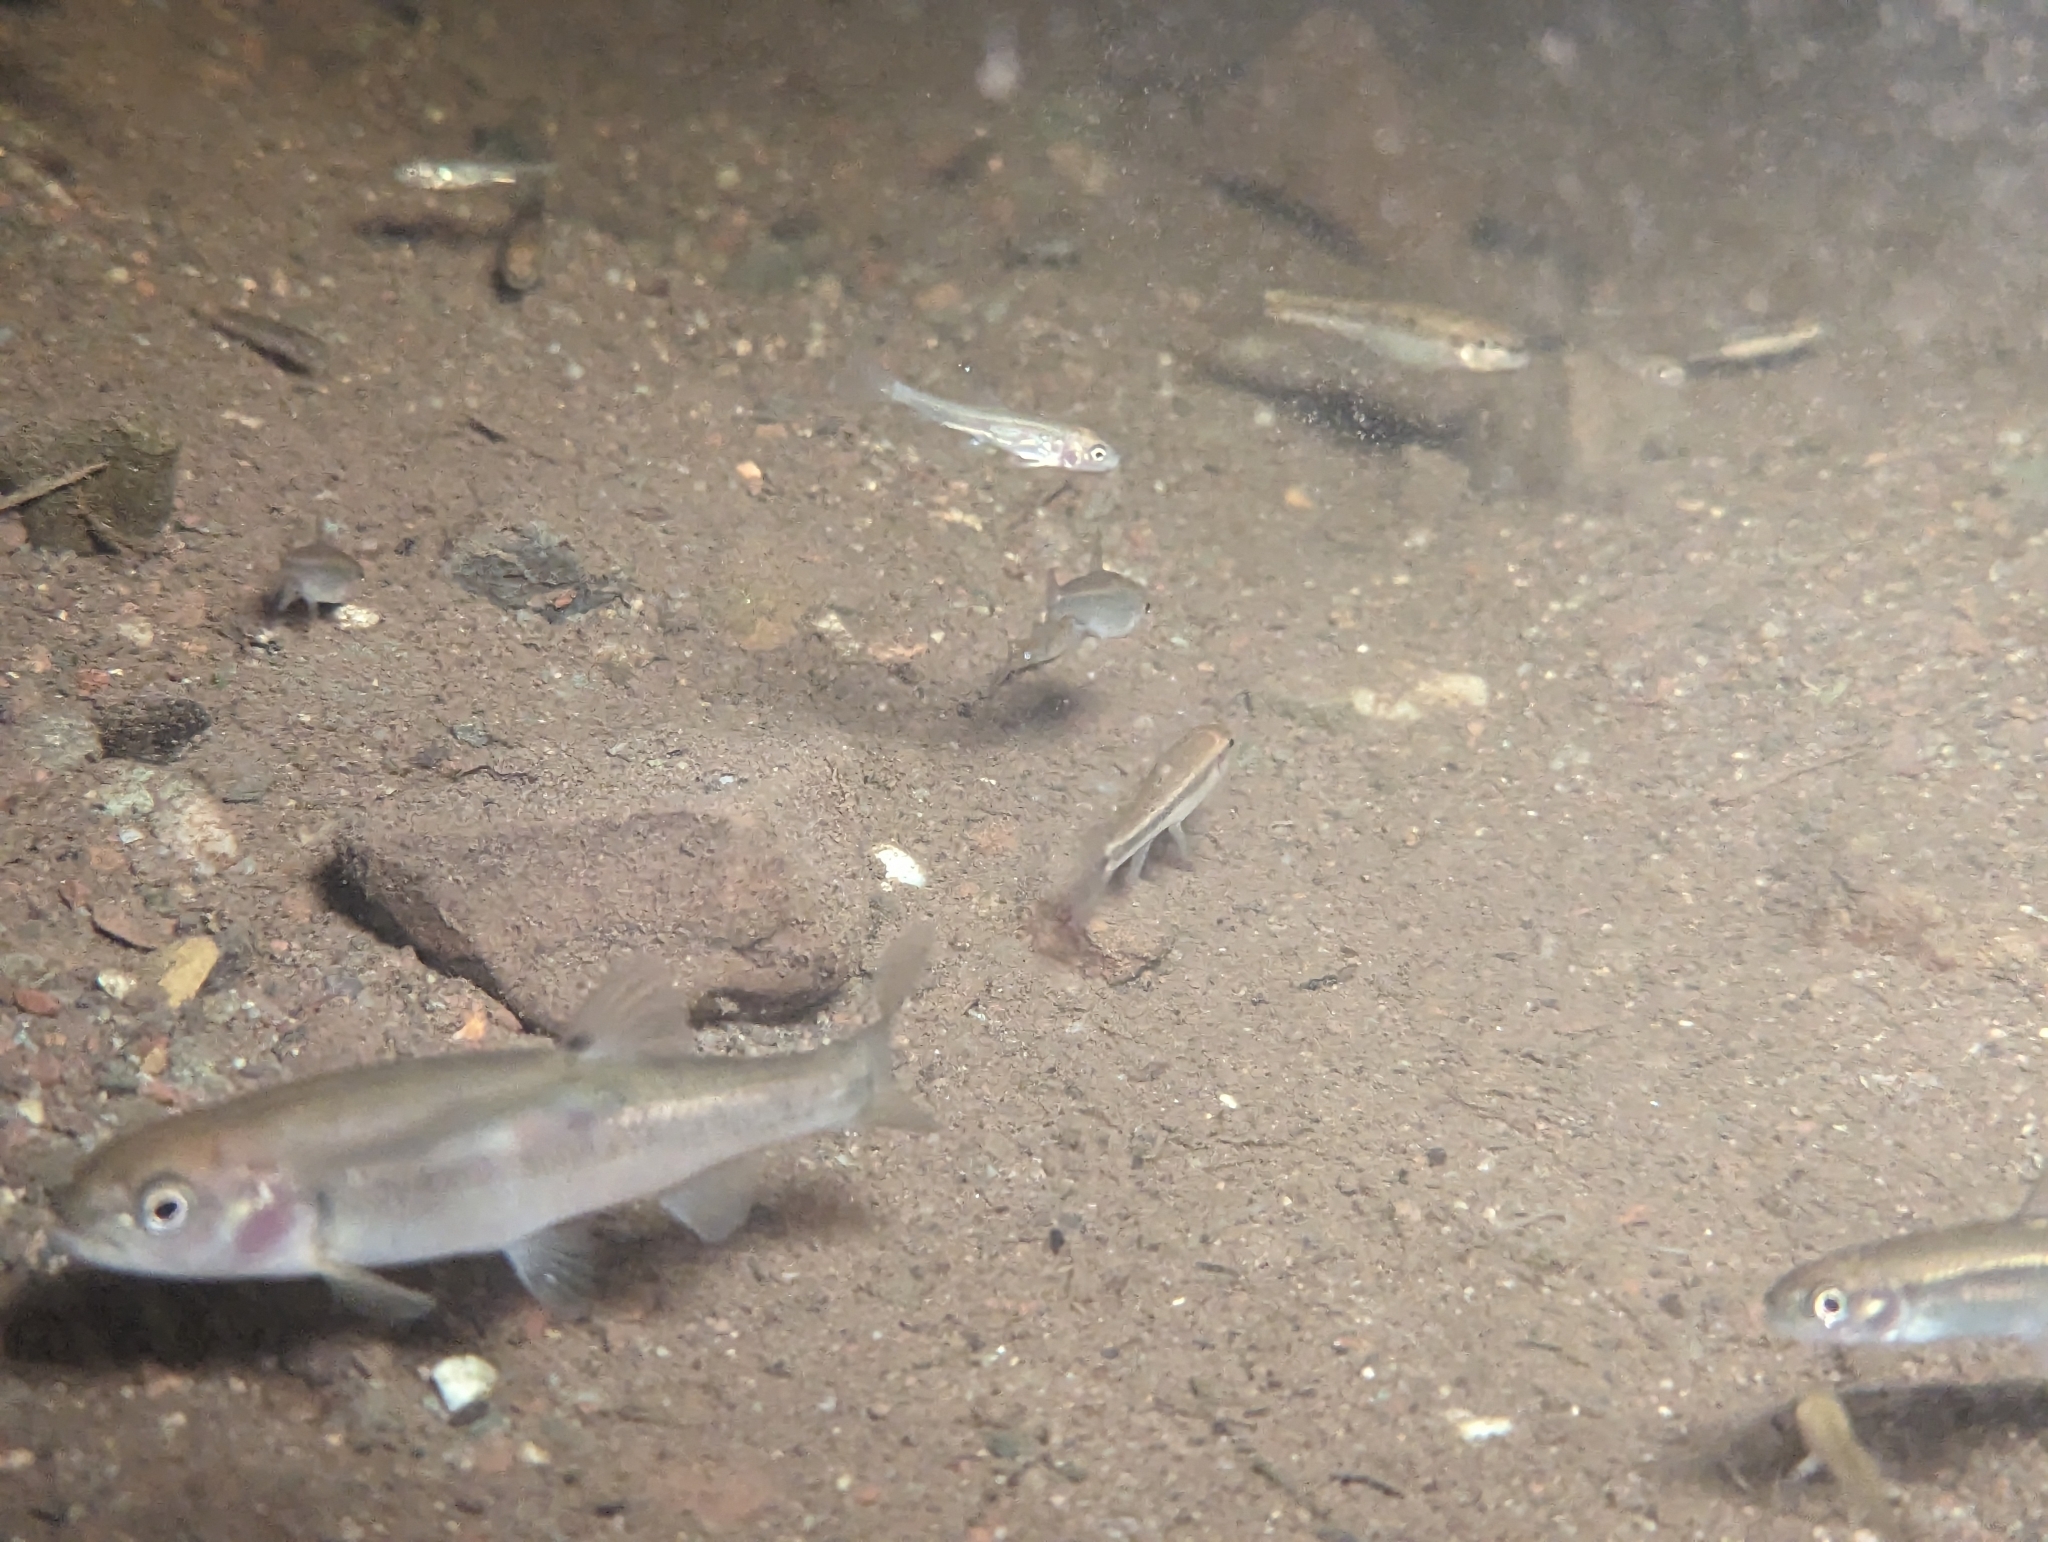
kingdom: Animalia
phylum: Chordata
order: Cypriniformes
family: Cyprinidae
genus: Semotilus
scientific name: Semotilus atromaculatus
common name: Creek chub
